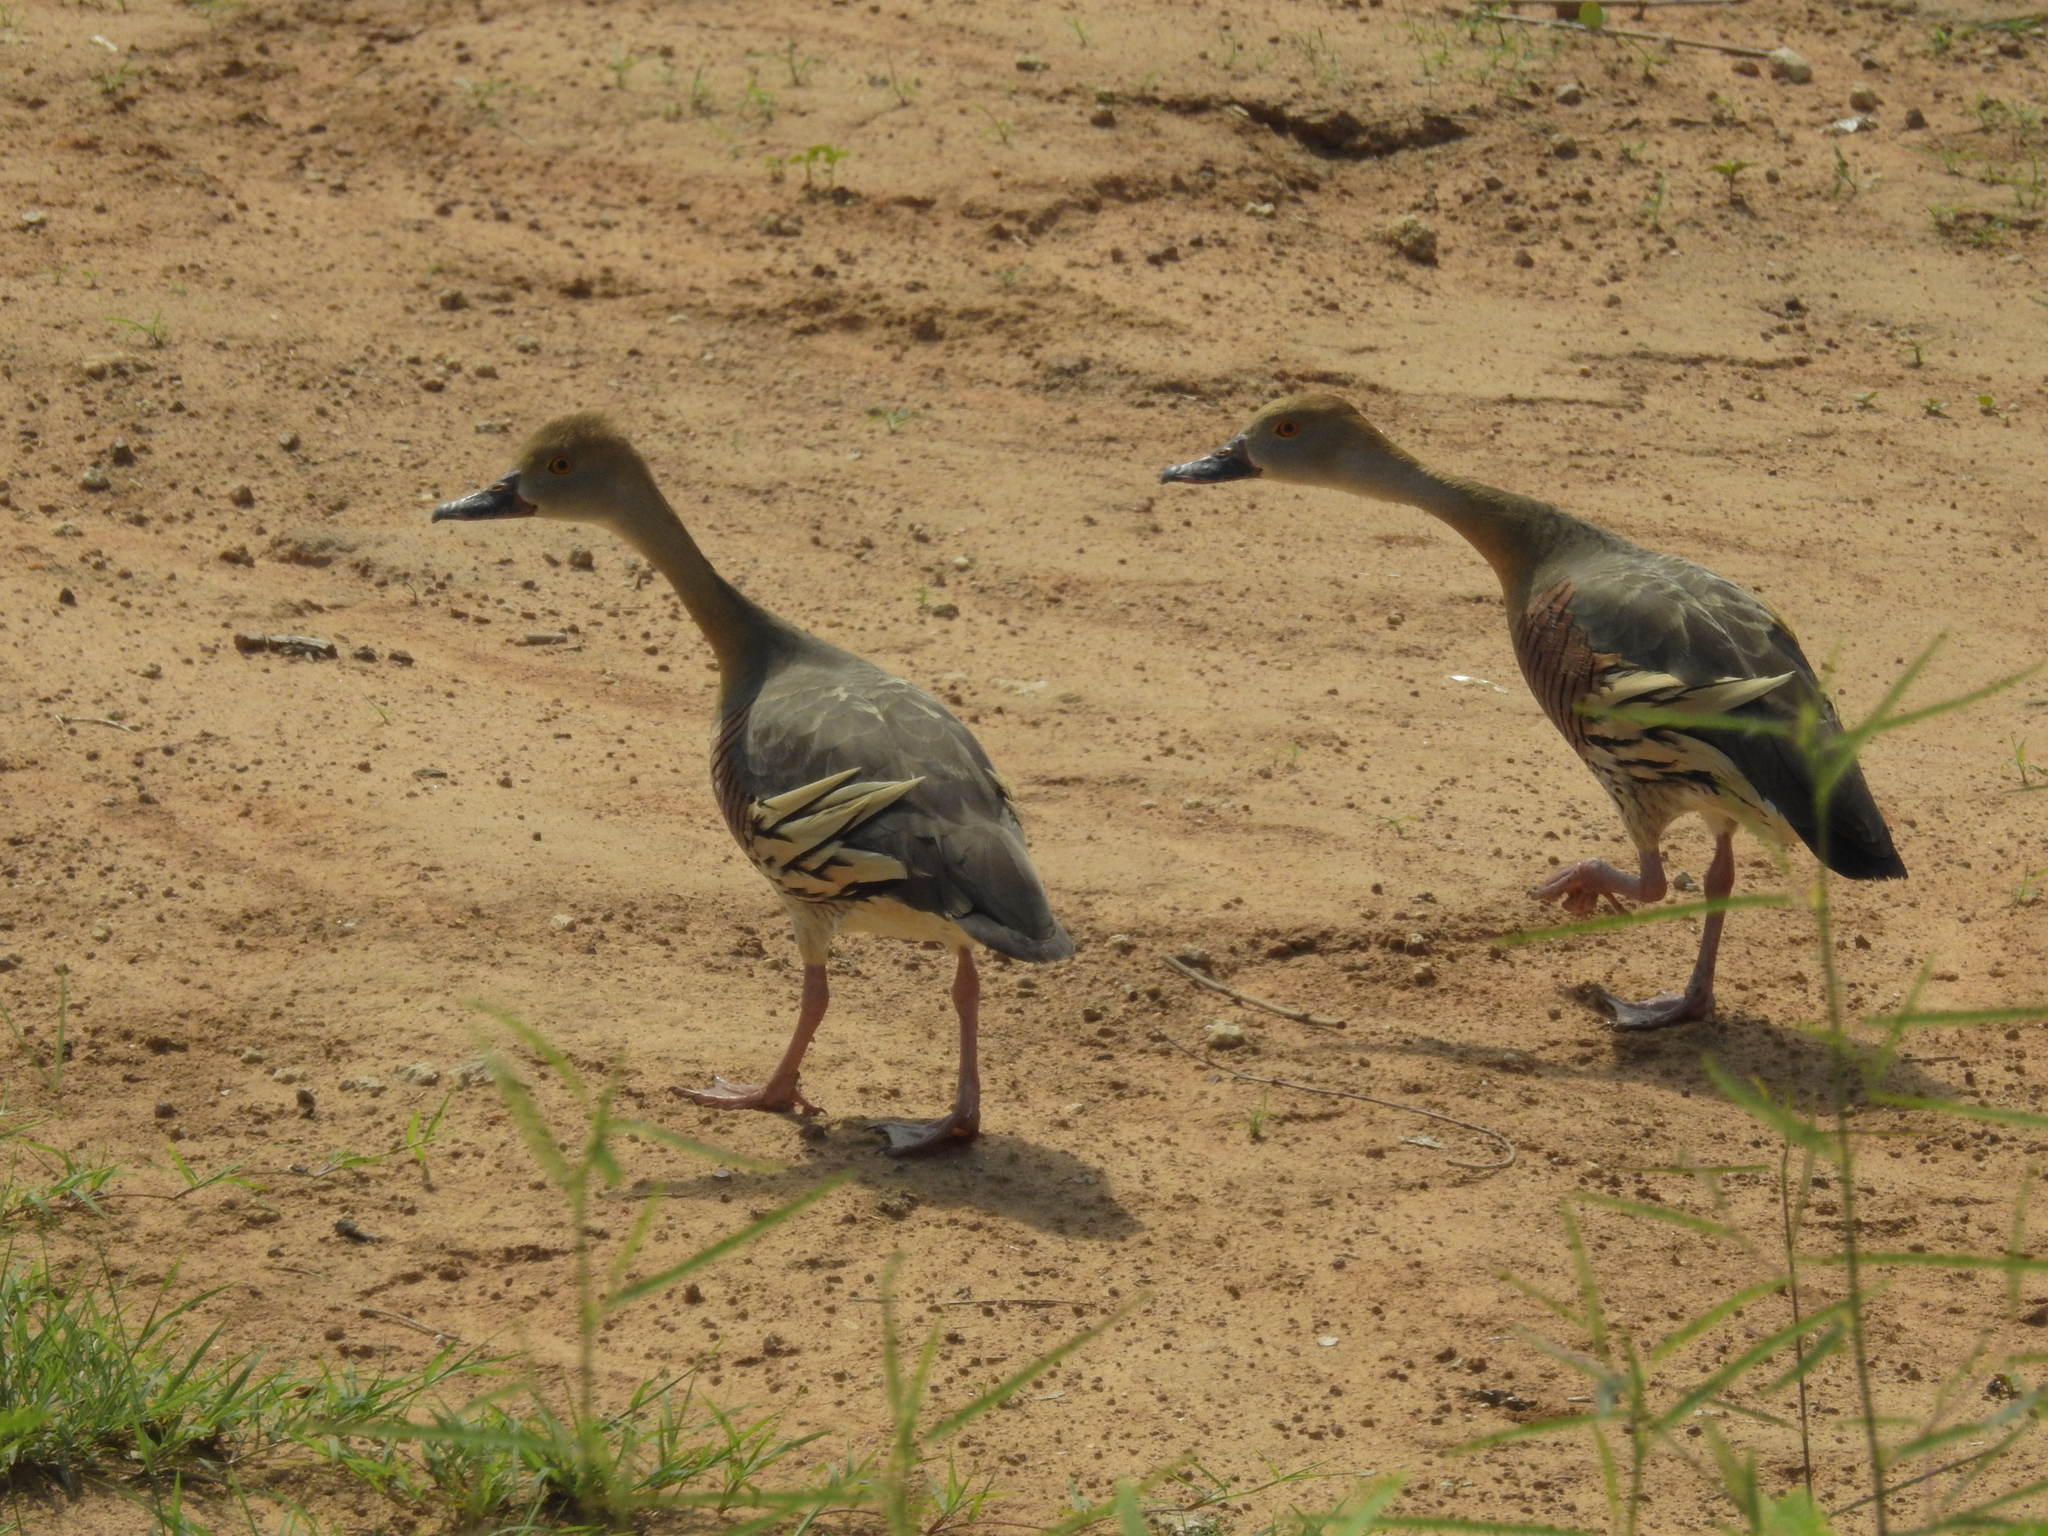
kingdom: Animalia
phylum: Chordata
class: Aves
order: Anseriformes
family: Anatidae
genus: Dendrocygna
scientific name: Dendrocygna eytoni
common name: Plumed whistling-duck
